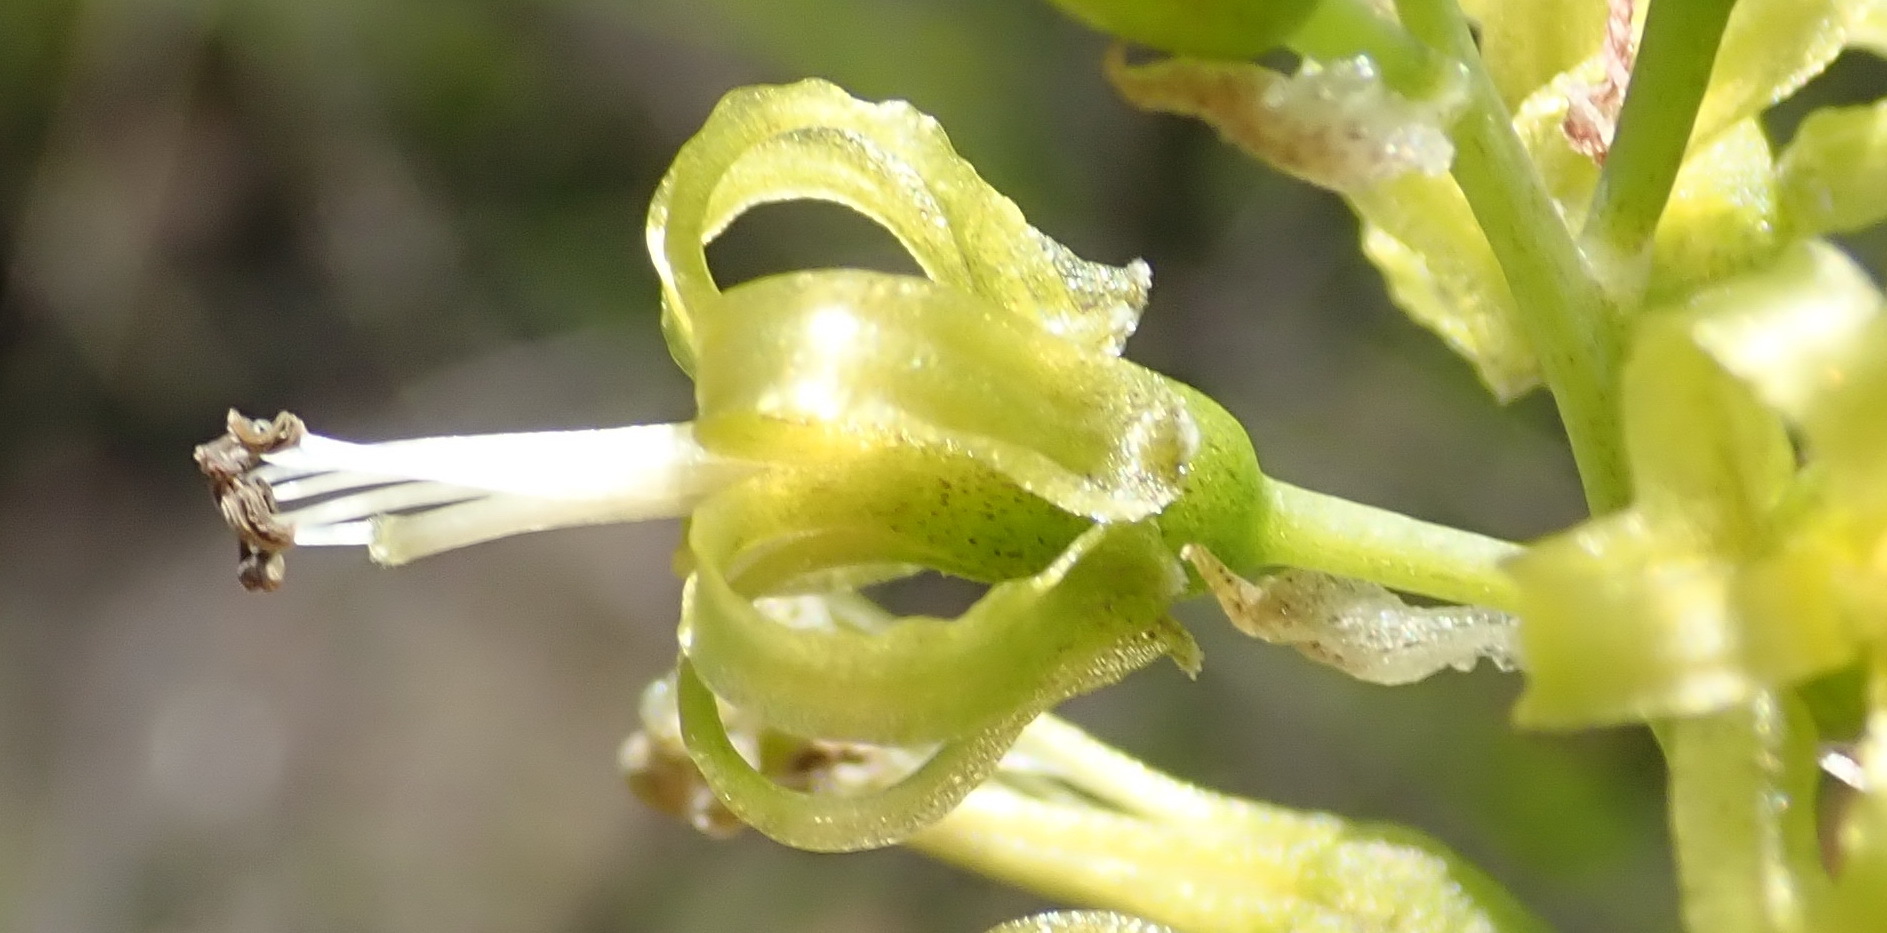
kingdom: Plantae
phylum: Tracheophyta
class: Liliopsida
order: Asparagales
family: Asparagaceae
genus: Drimia
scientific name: Drimia elata
